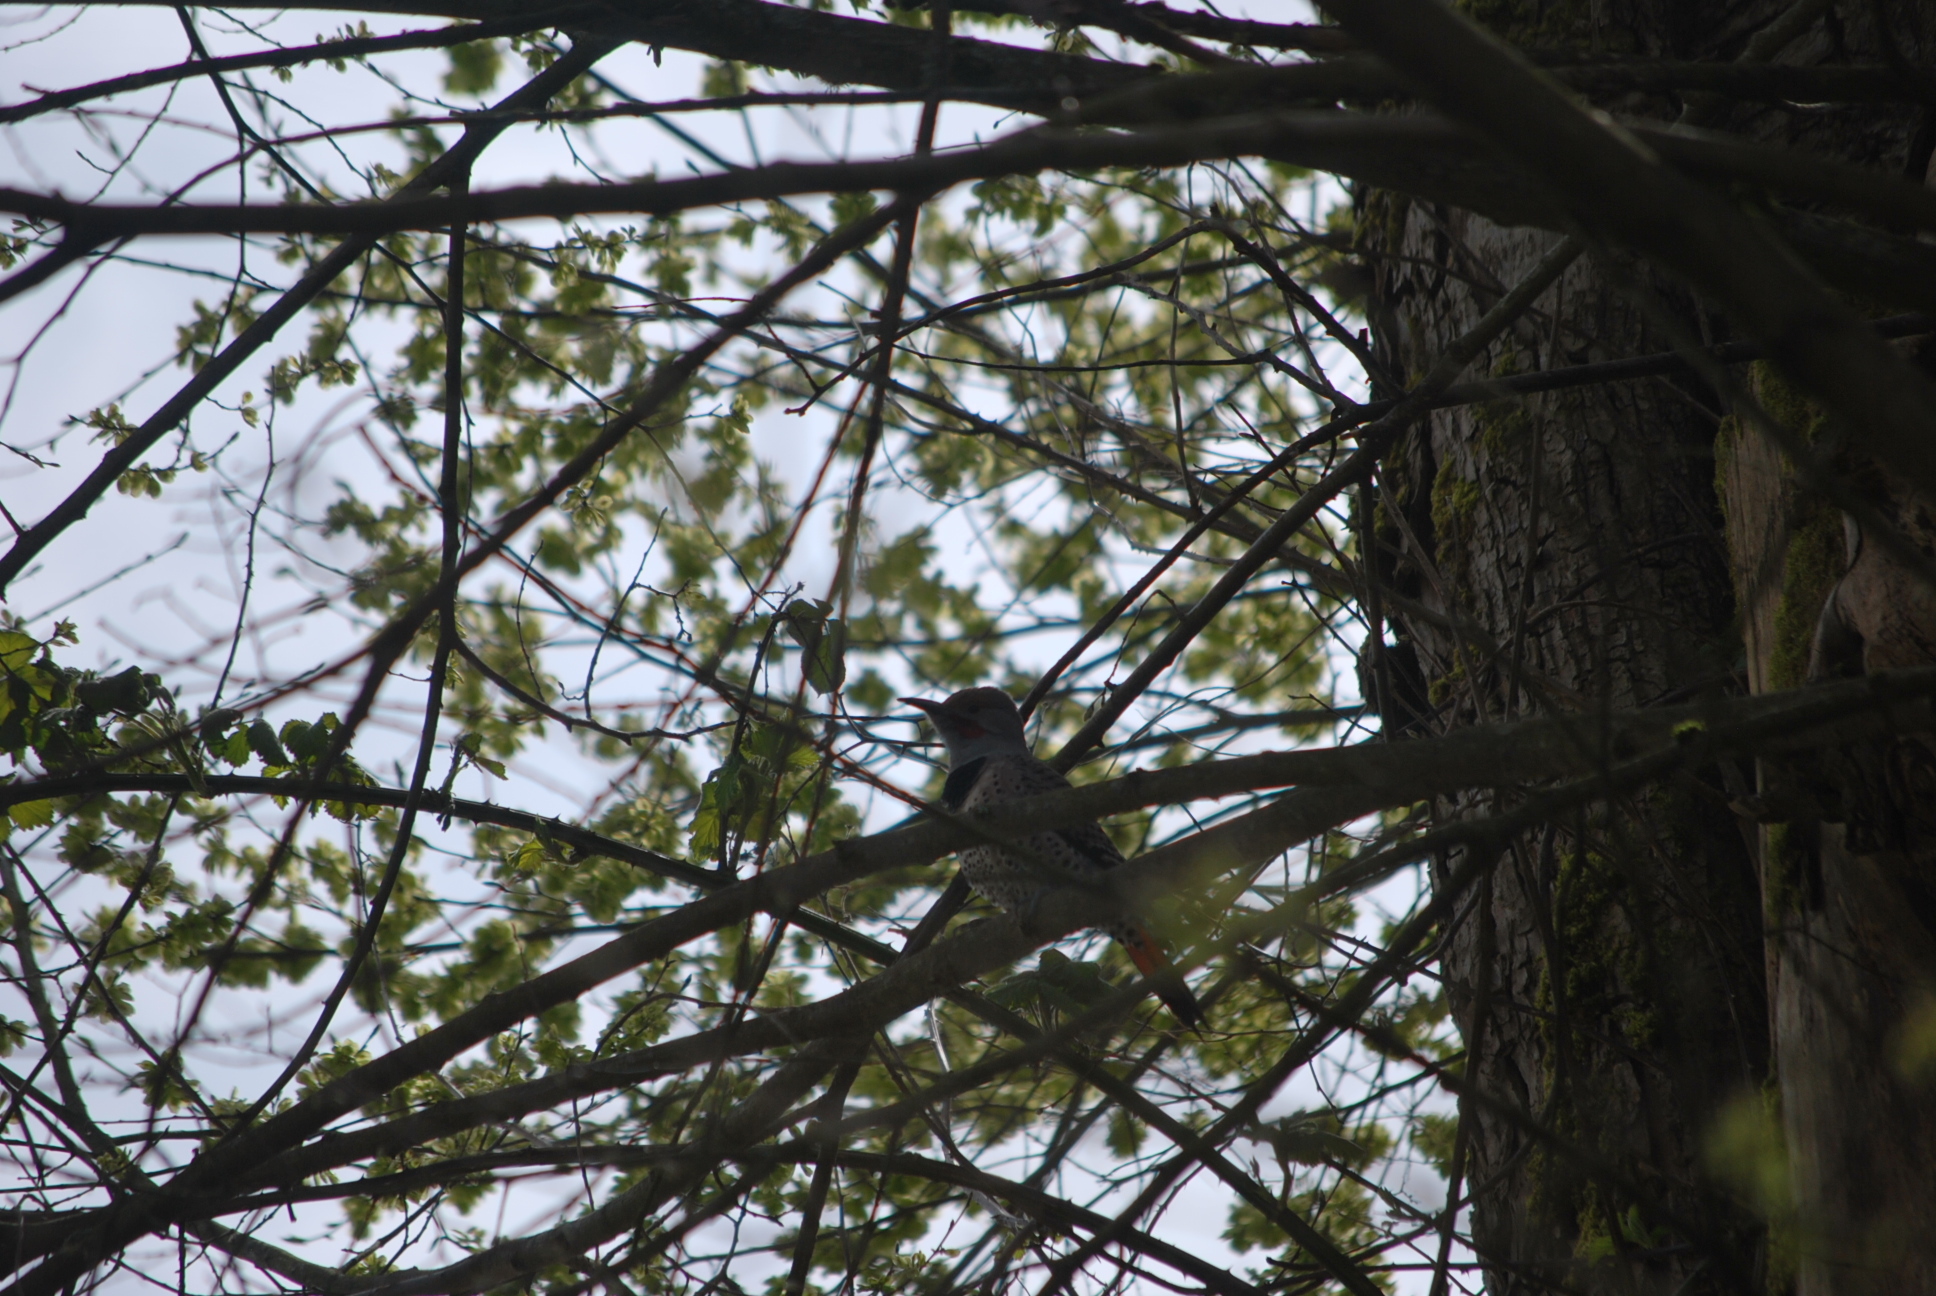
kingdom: Animalia
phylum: Chordata
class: Aves
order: Piciformes
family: Picidae
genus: Colaptes
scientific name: Colaptes auratus
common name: Northern flicker
